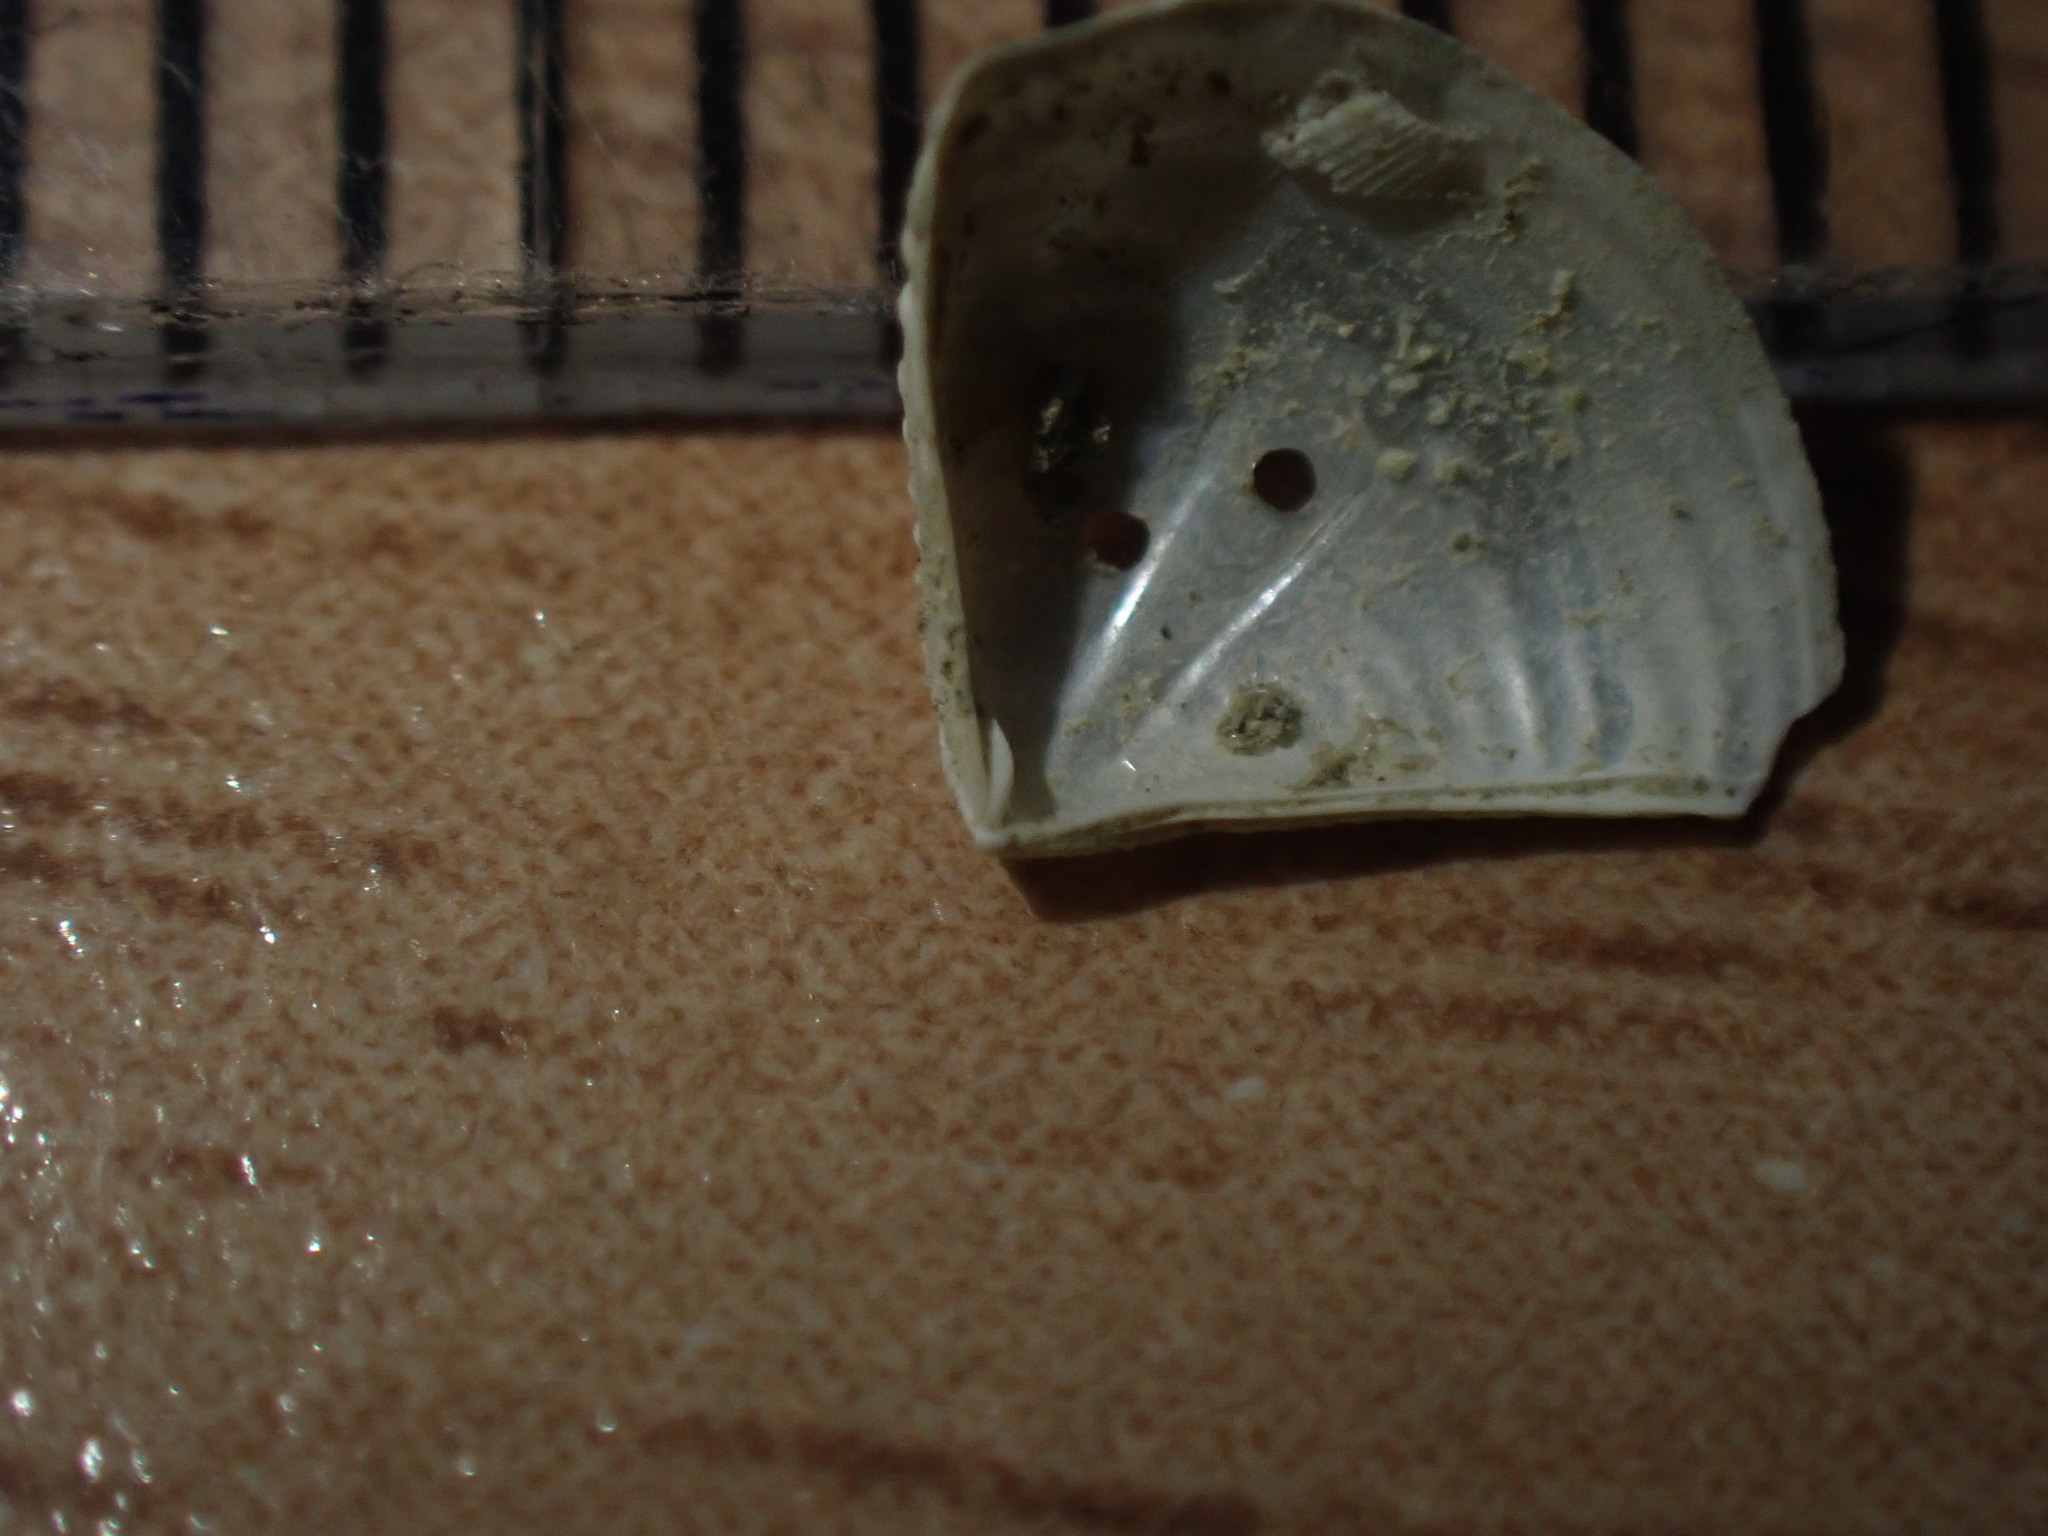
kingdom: Animalia
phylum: Mollusca
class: Bivalvia
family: Myochamidae
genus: Myadora
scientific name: Myadora novaezelandiae
